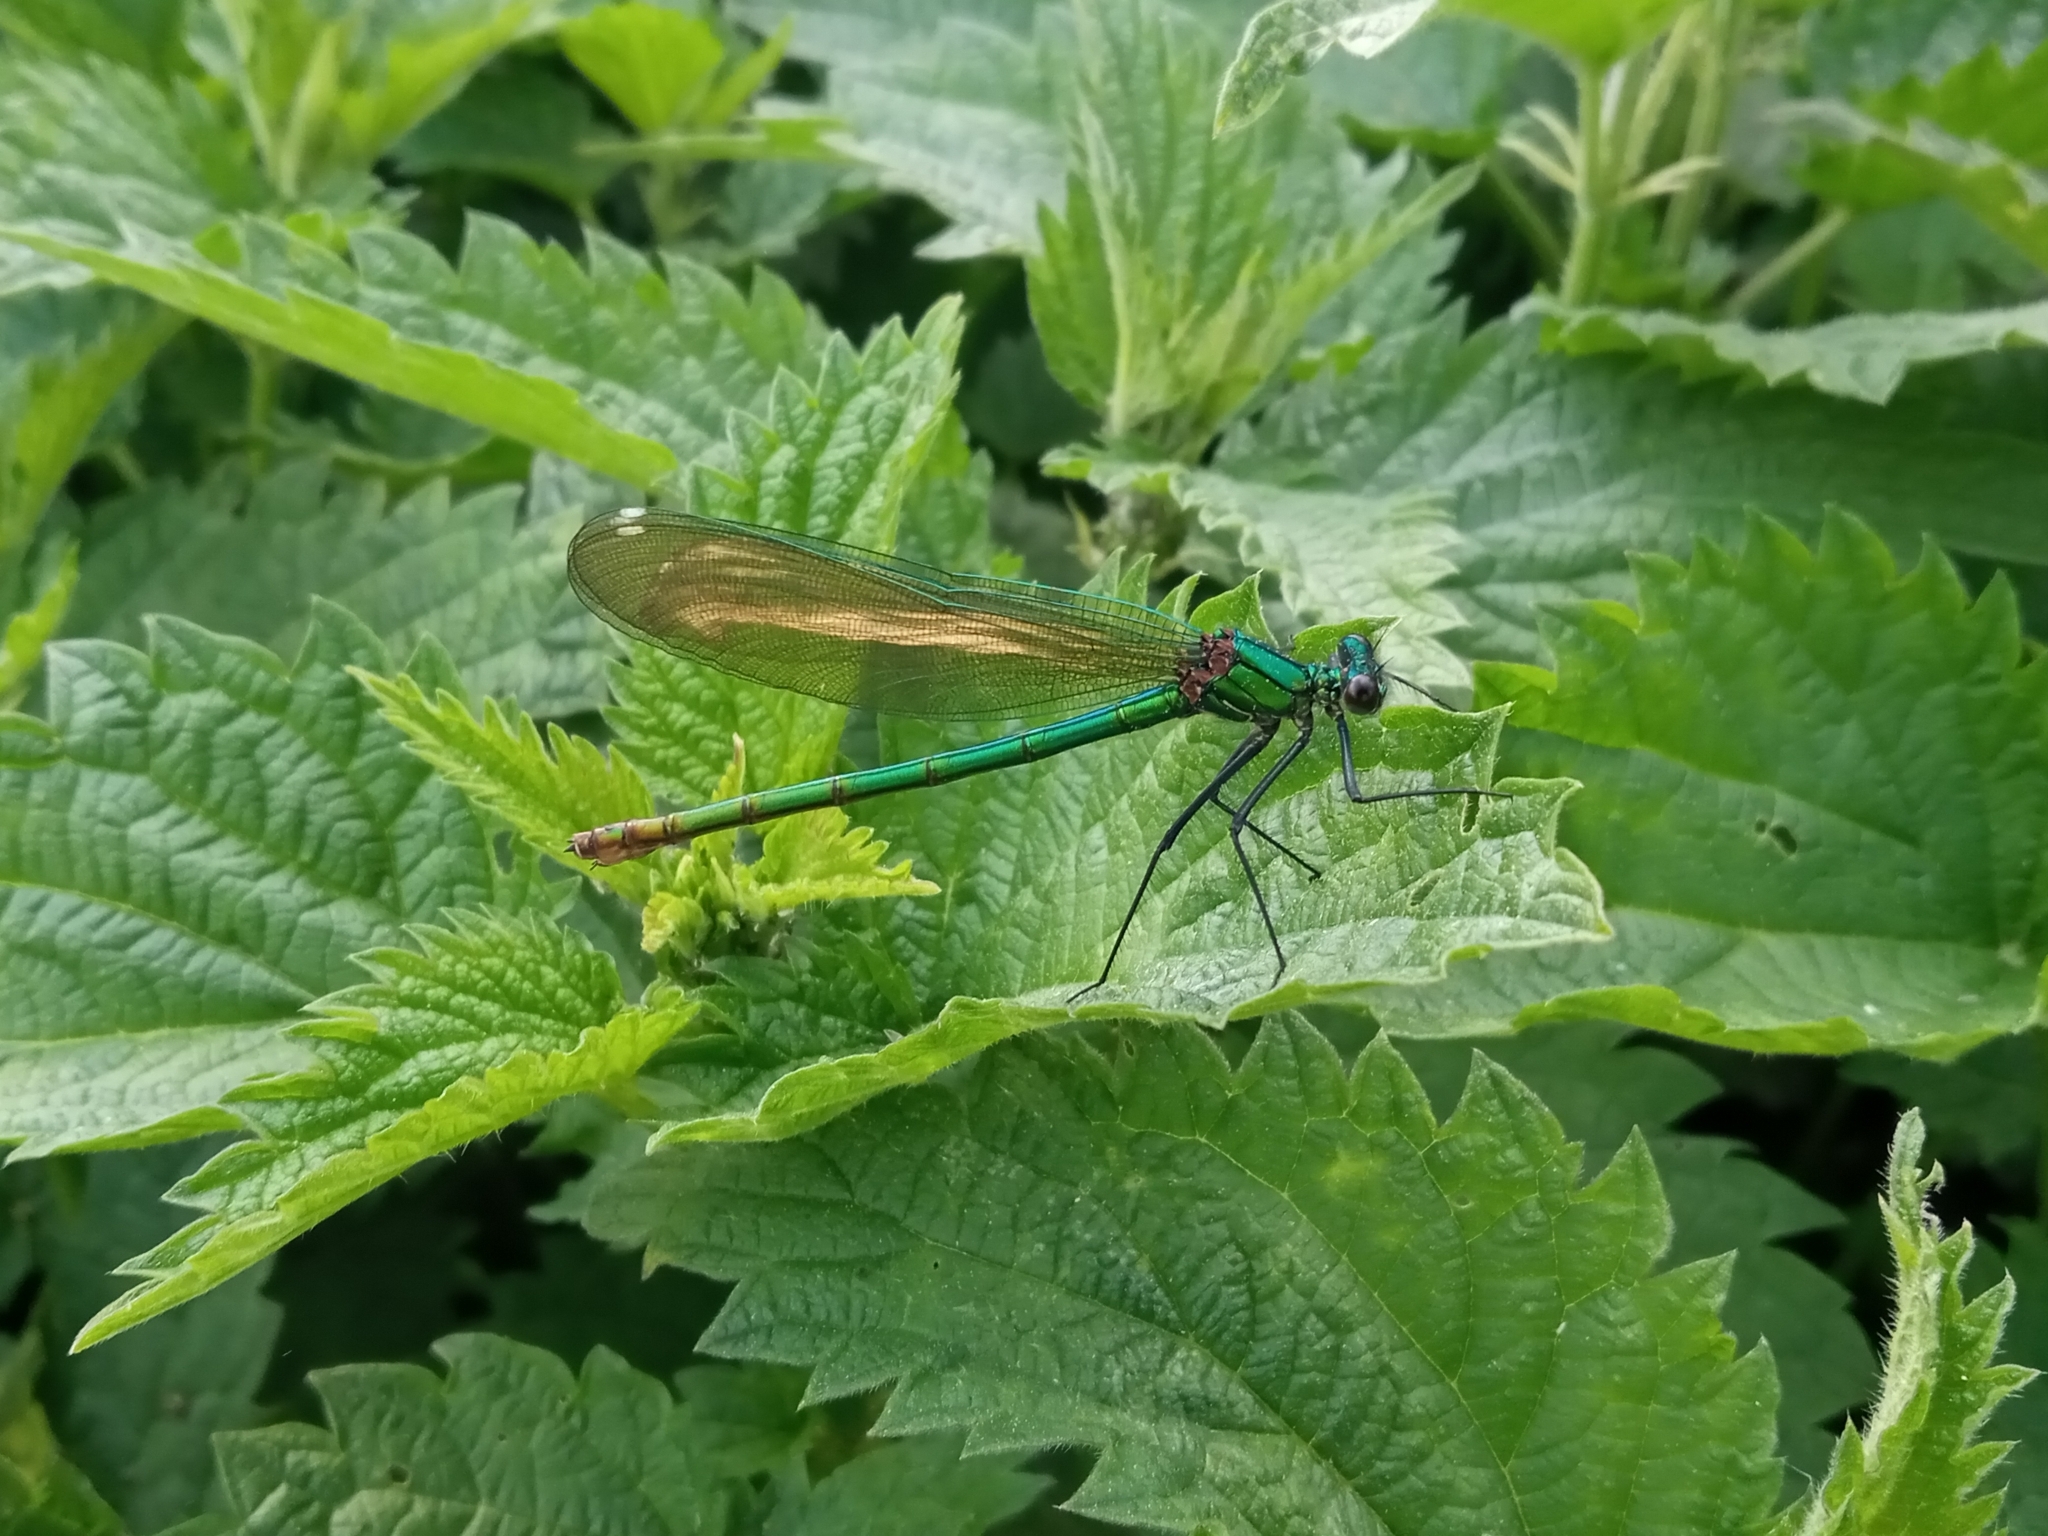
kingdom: Animalia
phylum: Arthropoda
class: Insecta
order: Odonata
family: Calopterygidae
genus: Calopteryx
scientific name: Calopteryx splendens
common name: Banded demoiselle
